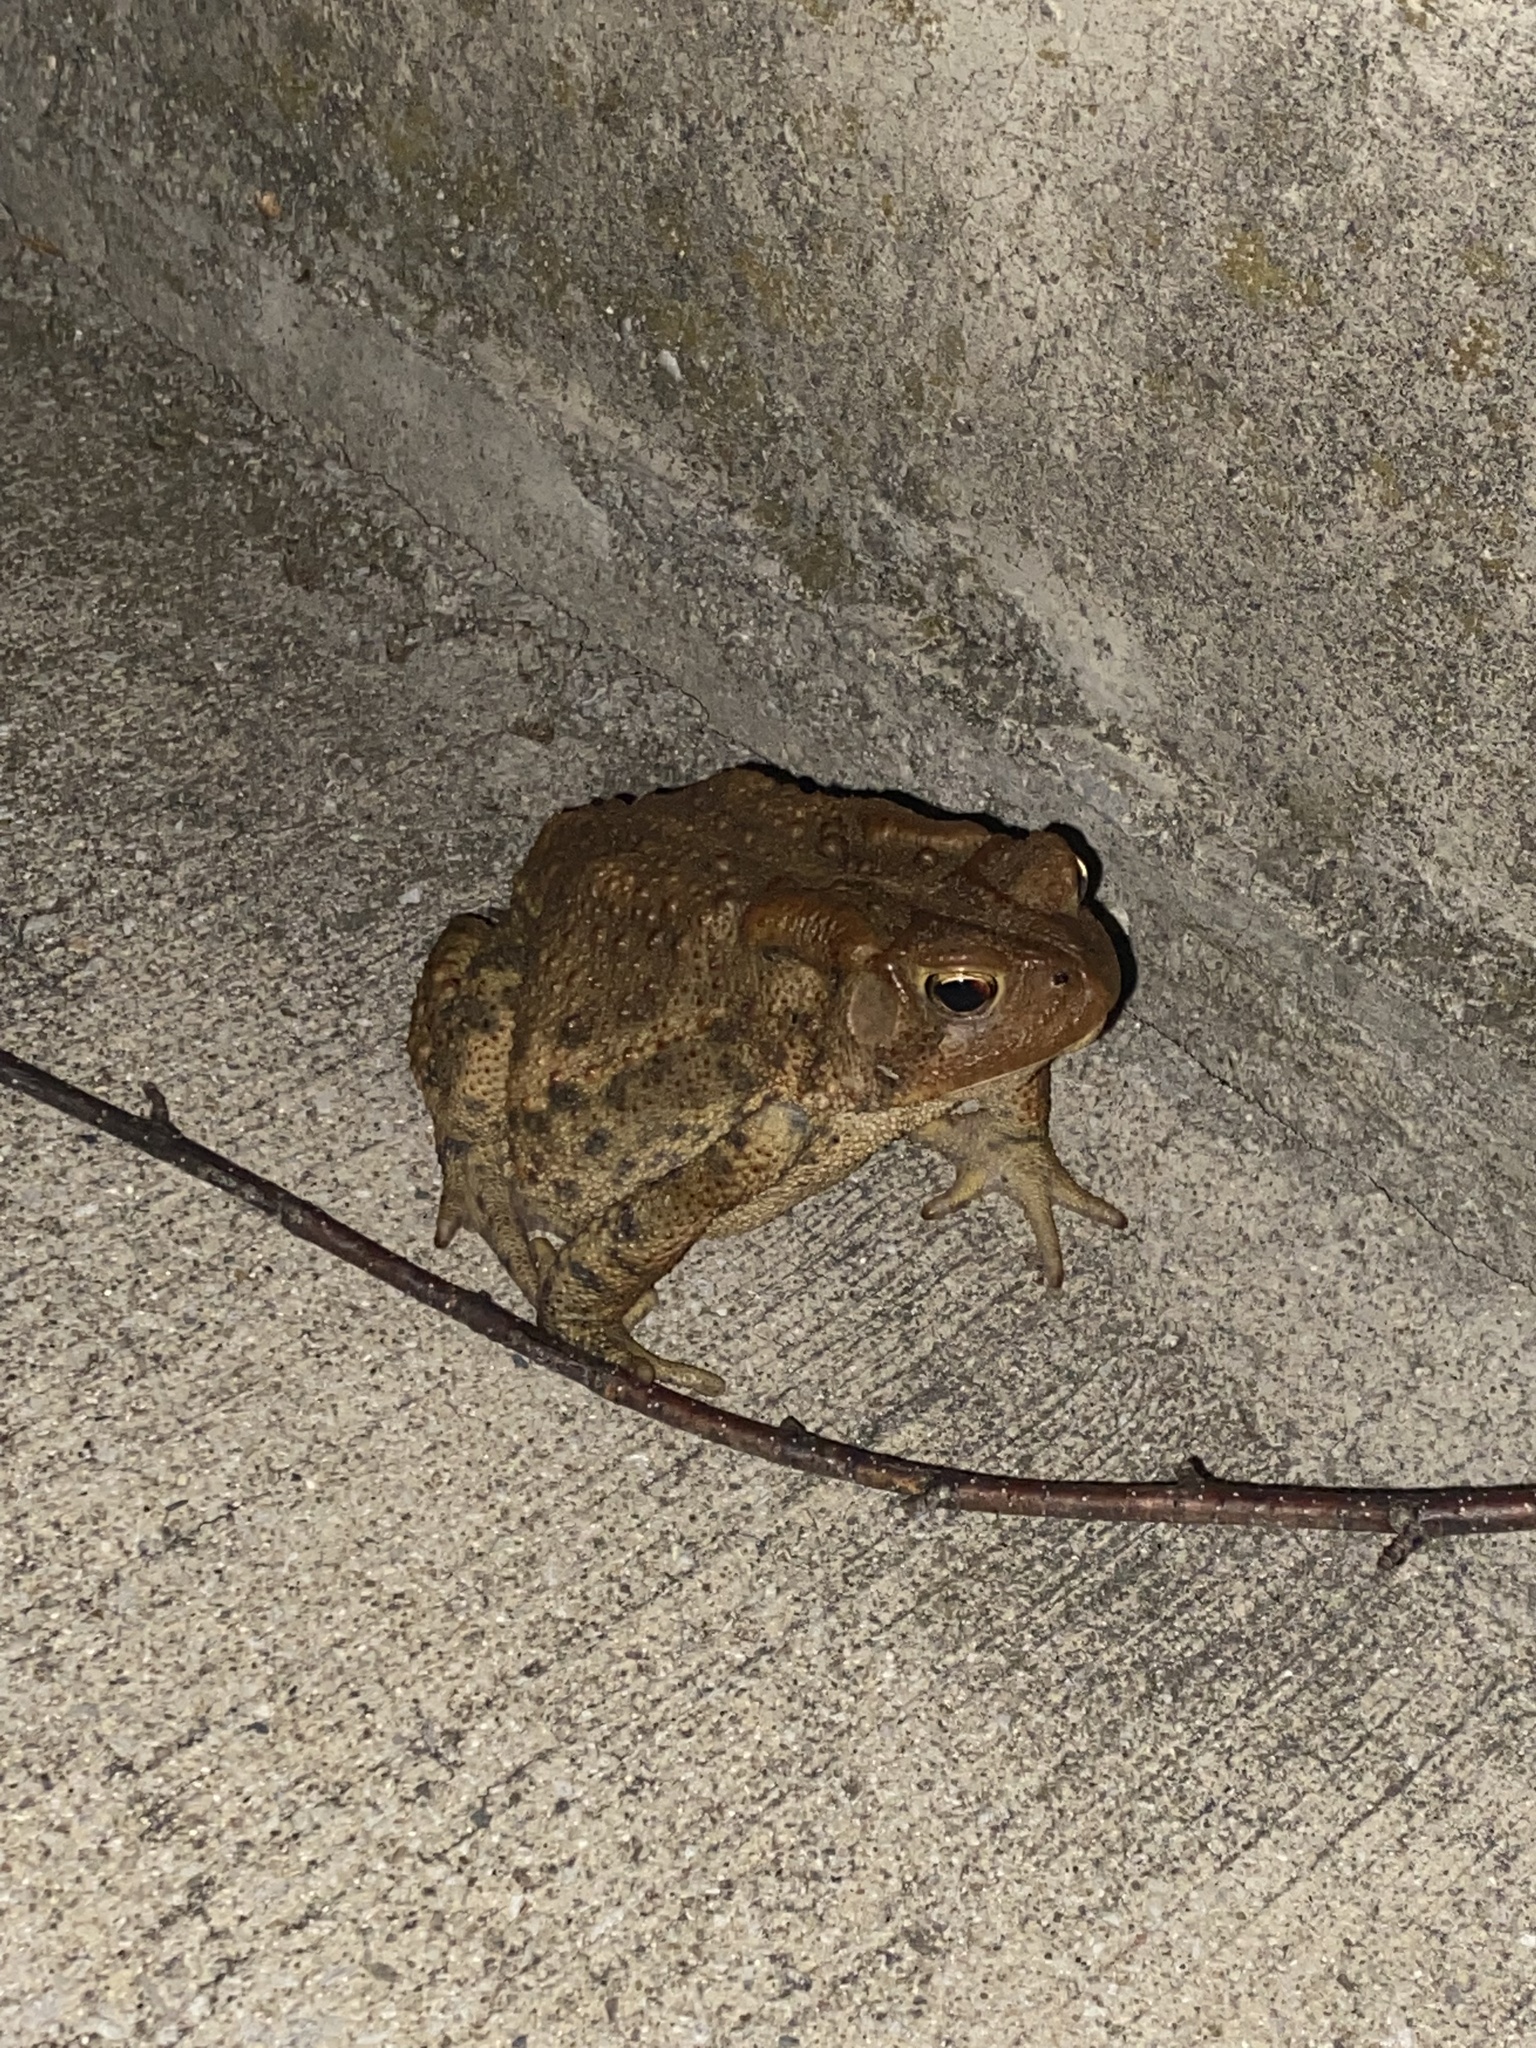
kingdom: Animalia
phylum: Chordata
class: Amphibia
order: Anura
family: Bufonidae
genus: Anaxyrus
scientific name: Anaxyrus americanus
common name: American toad
